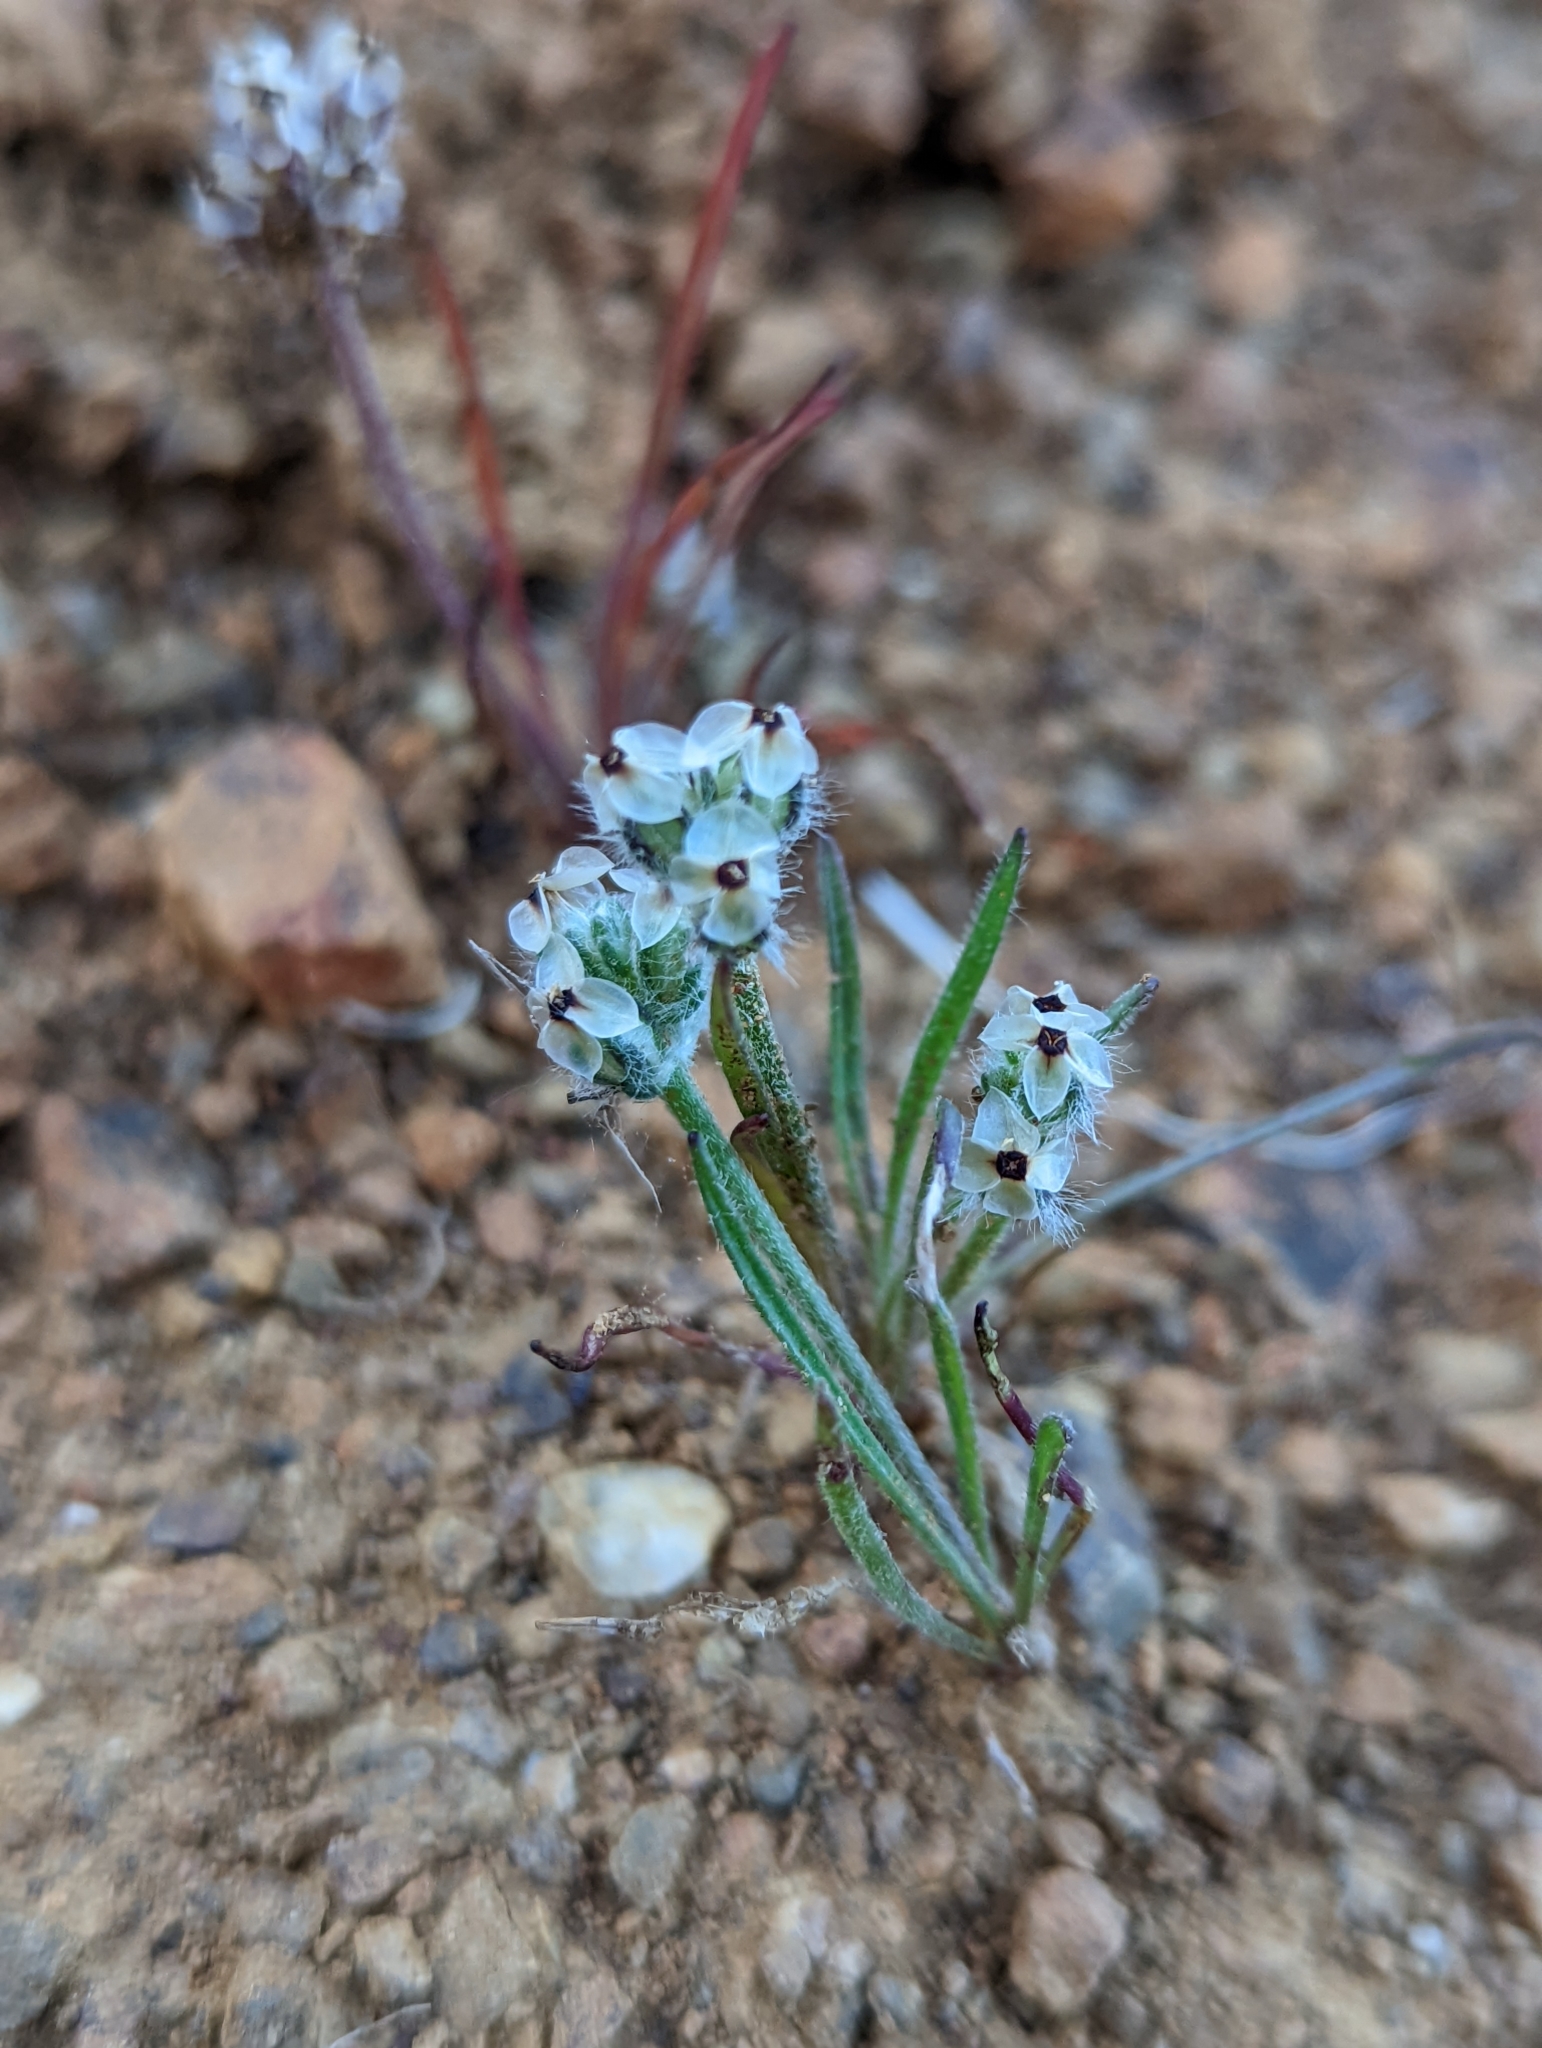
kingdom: Plantae
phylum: Tracheophyta
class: Magnoliopsida
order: Lamiales
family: Plantaginaceae
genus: Plantago
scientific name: Plantago erecta
